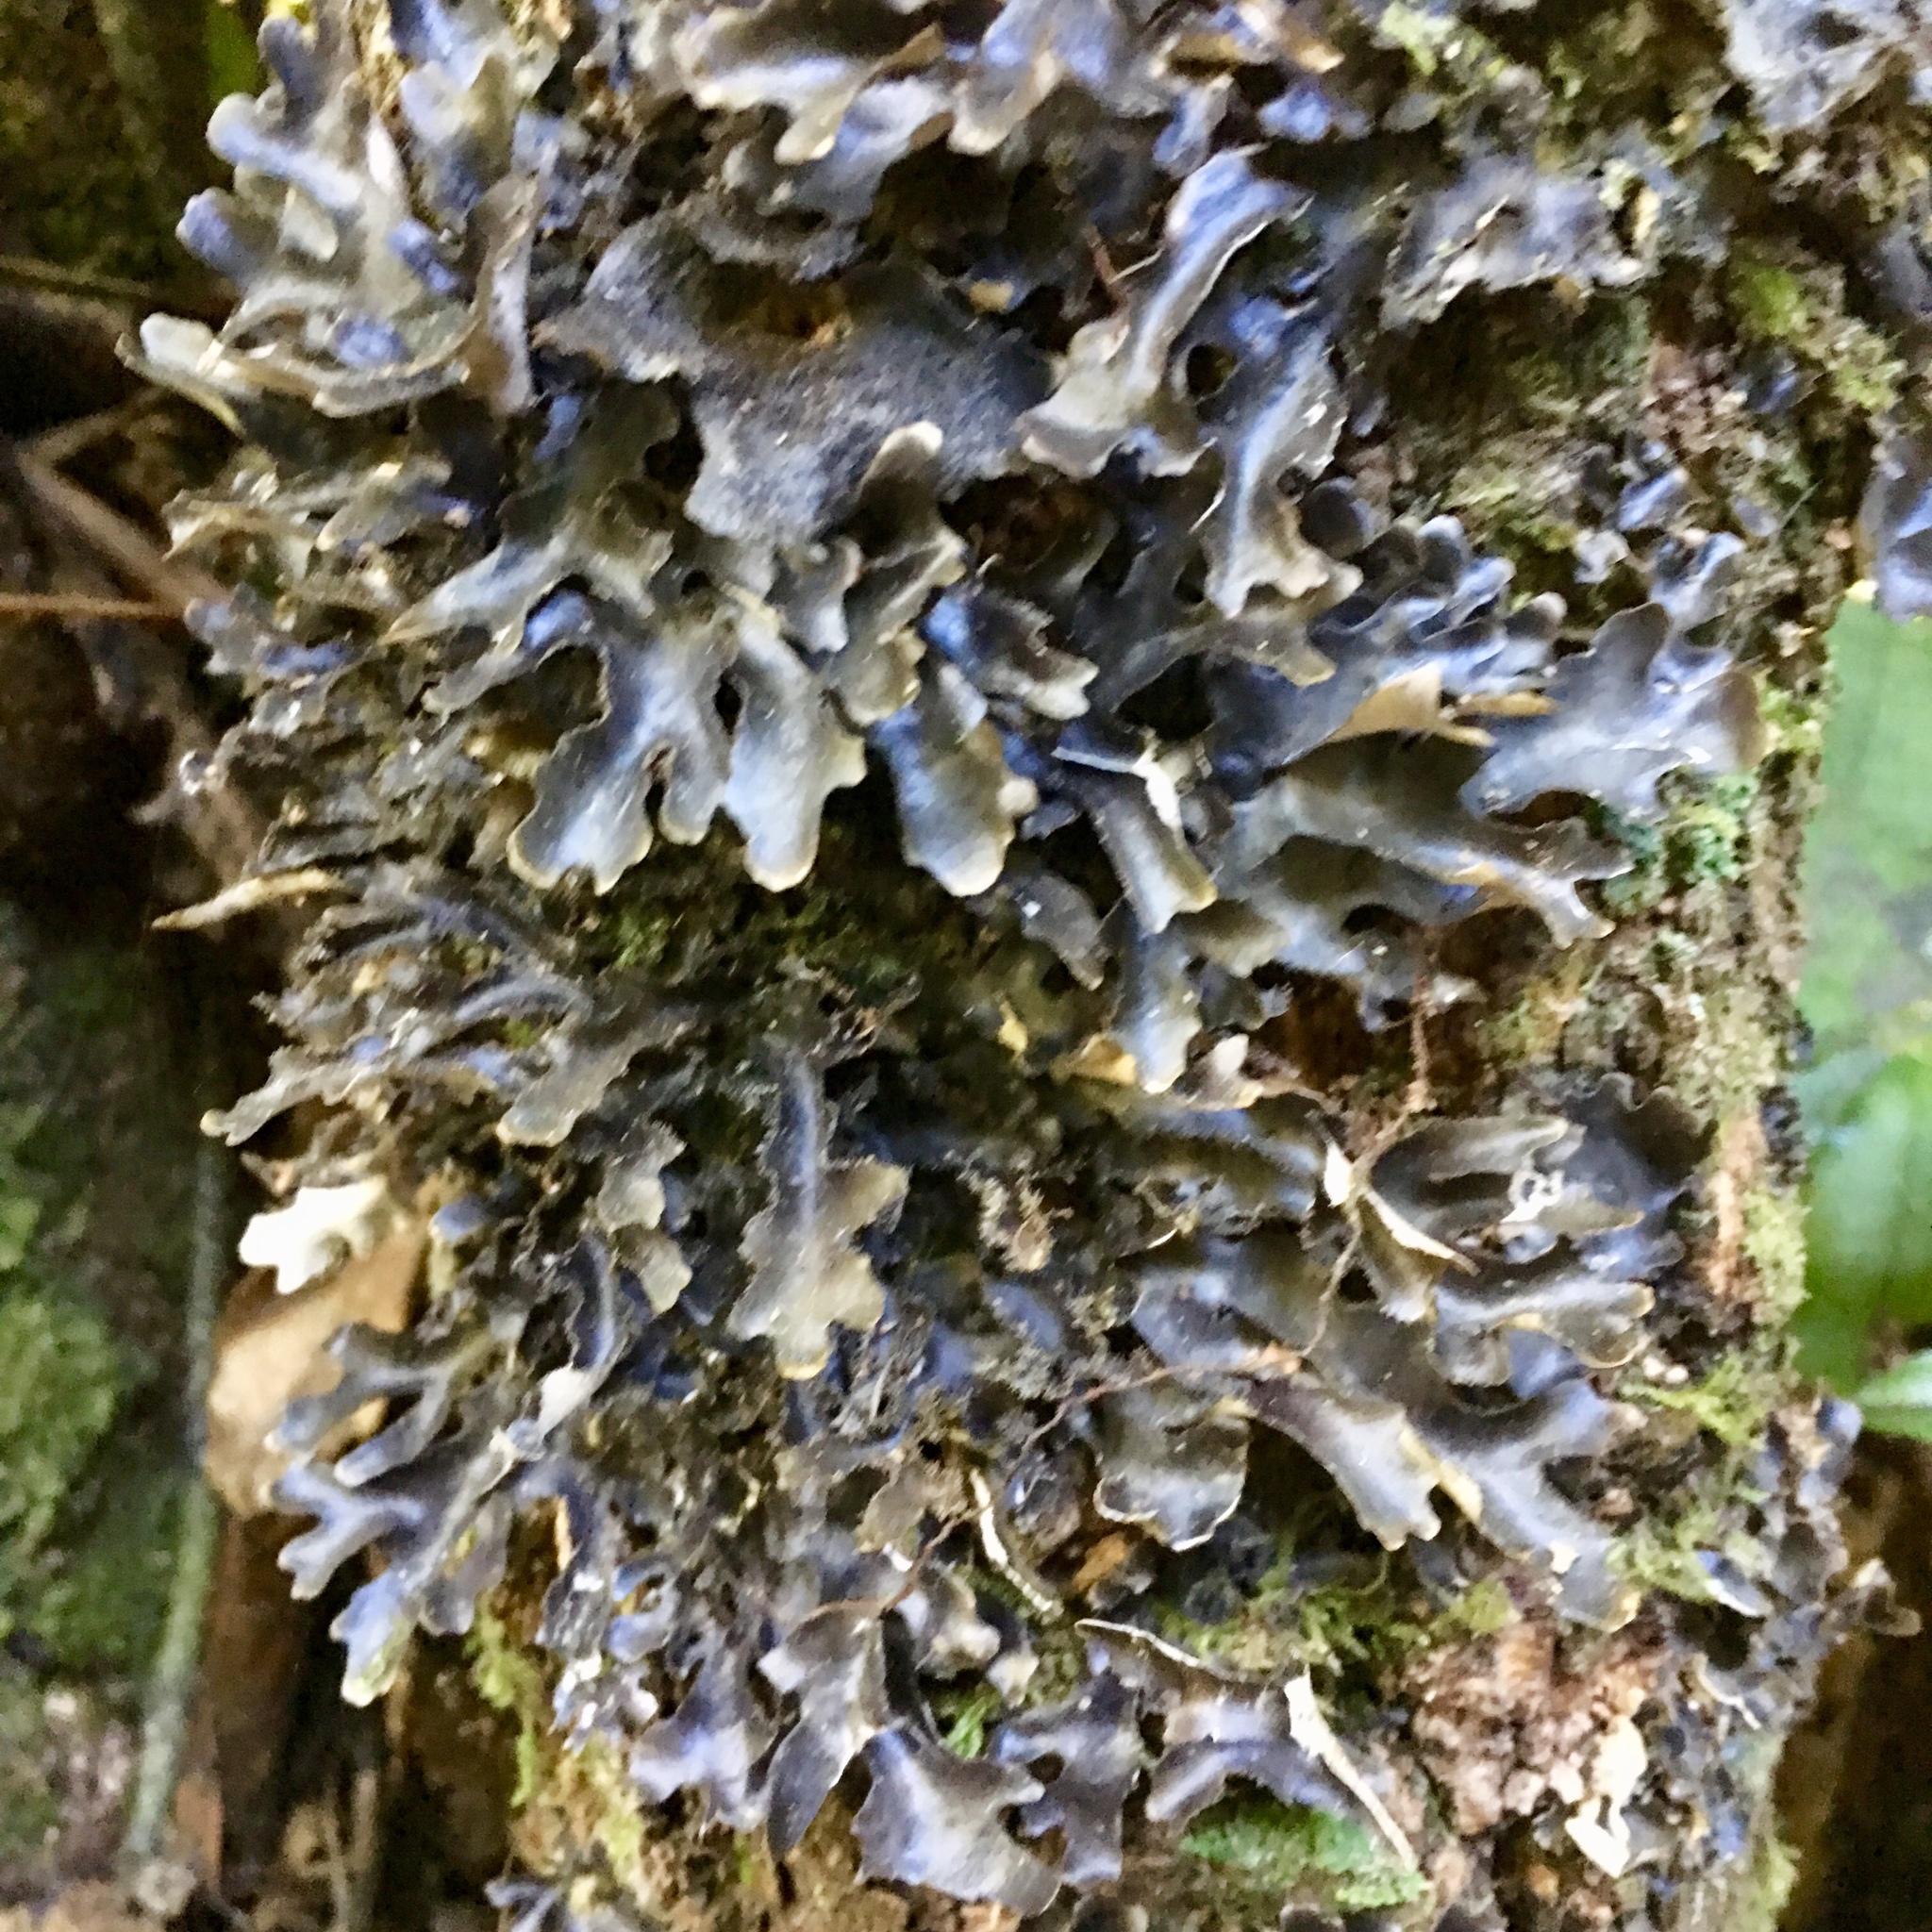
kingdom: Fungi
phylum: Ascomycota
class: Lecanoromycetes
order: Peltigerales
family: Lobariaceae
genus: Pseudocyphellaria
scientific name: Pseudocyphellaria dissimilis
